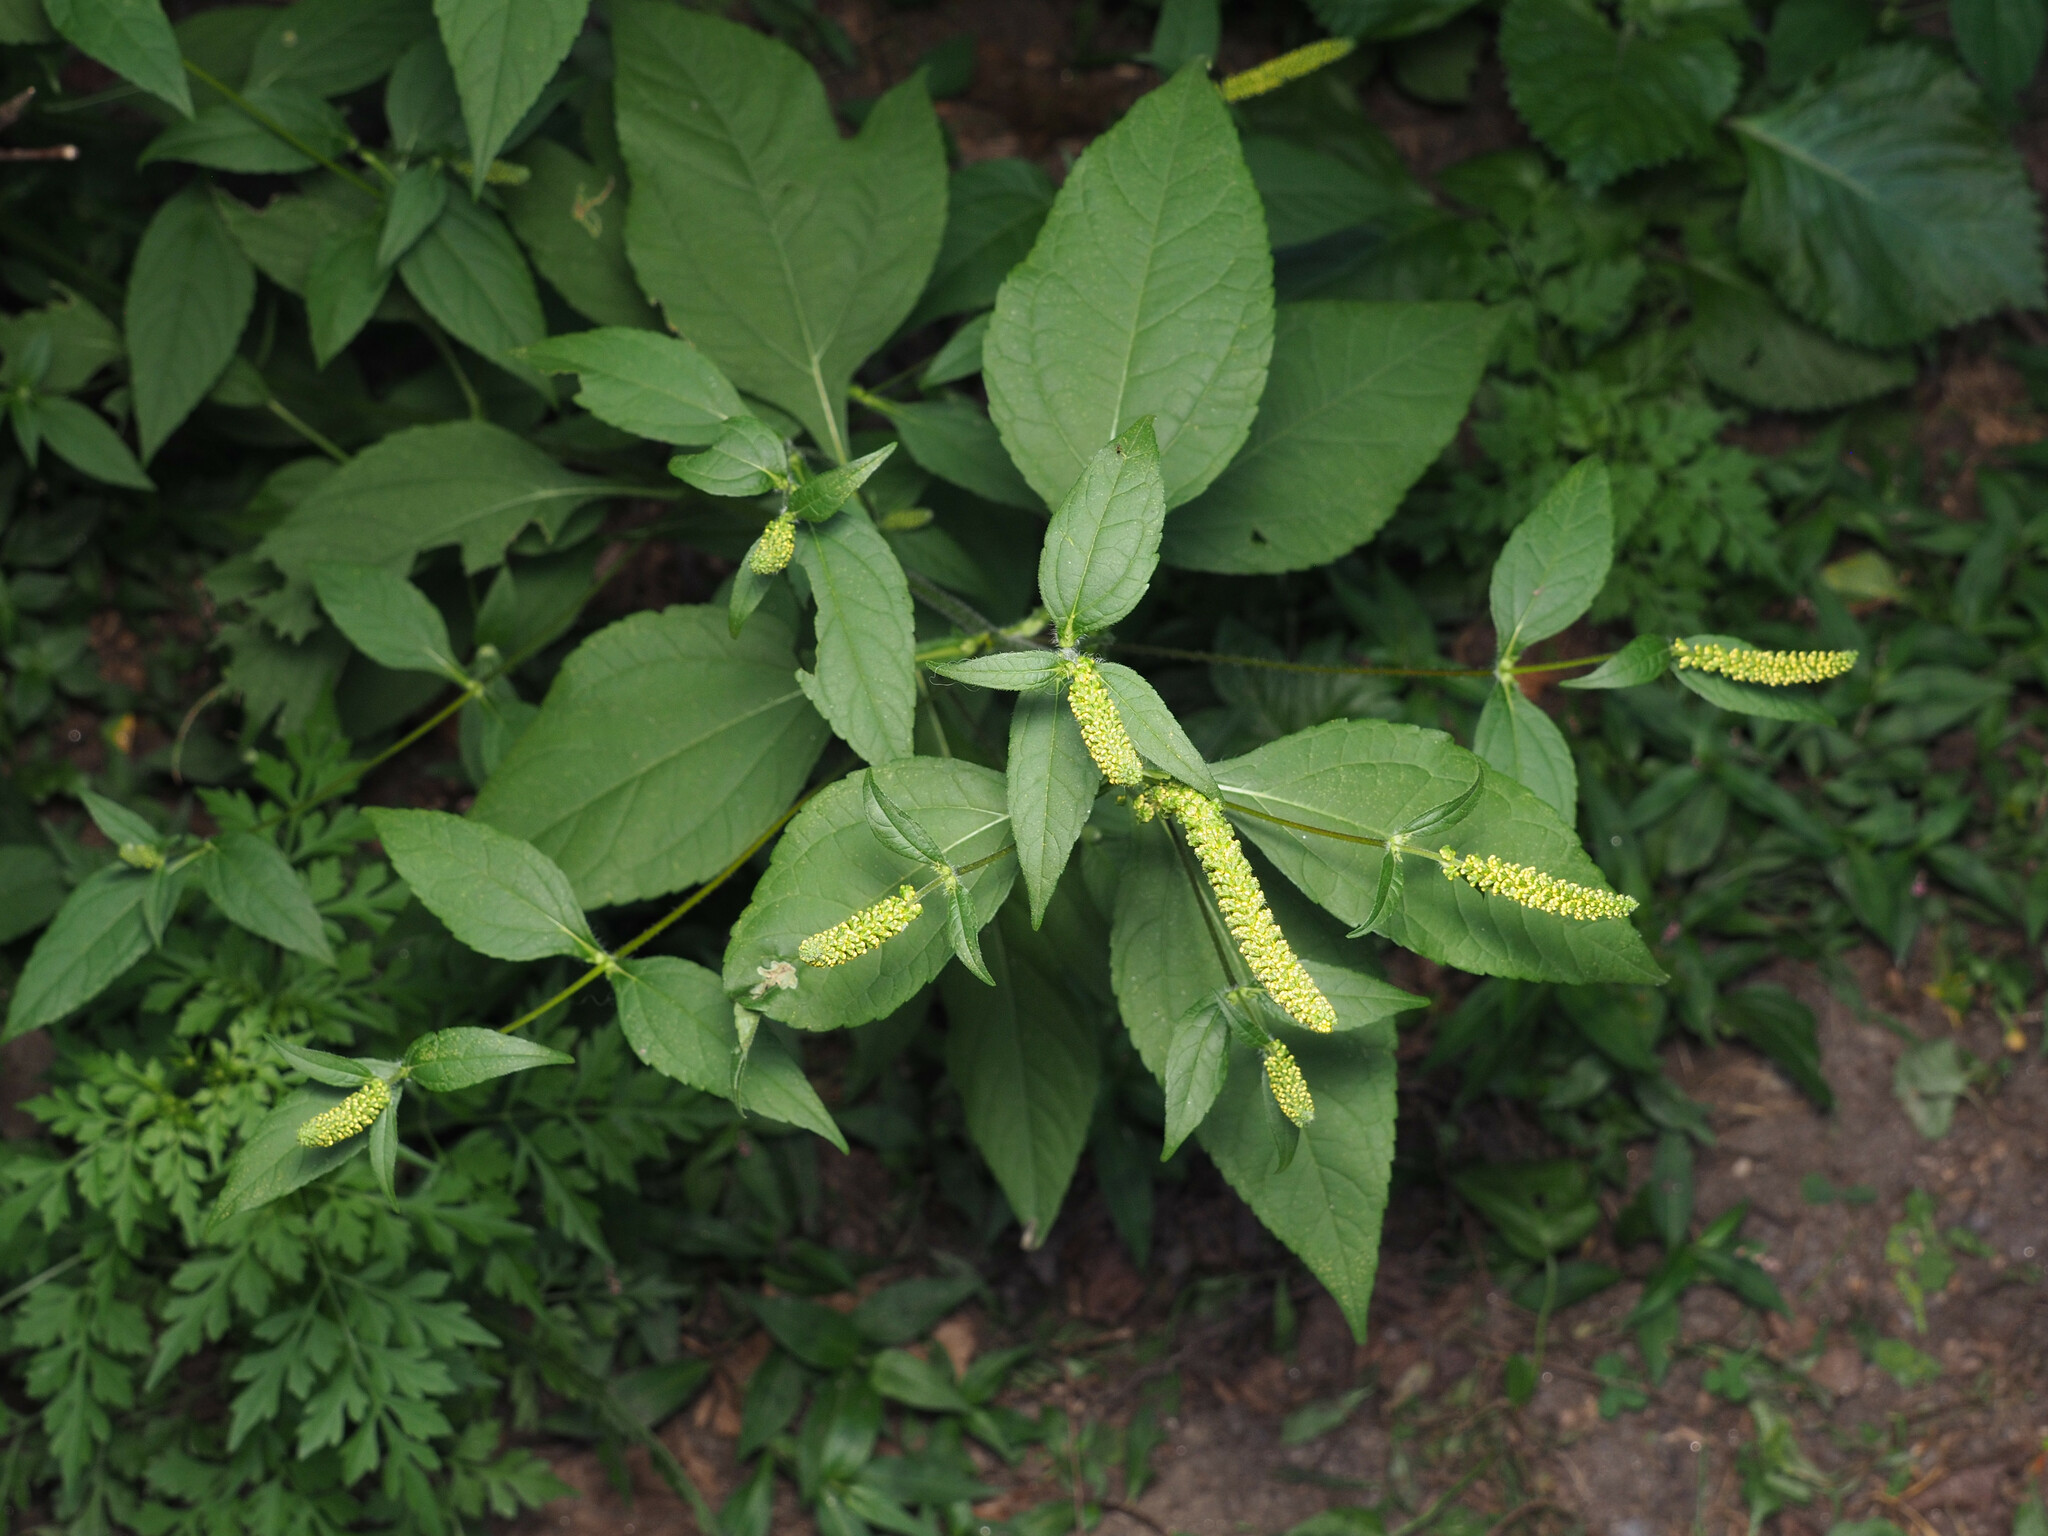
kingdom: Plantae
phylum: Tracheophyta
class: Magnoliopsida
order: Asterales
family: Asteraceae
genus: Ambrosia
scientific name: Ambrosia trifida
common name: Giant ragweed
